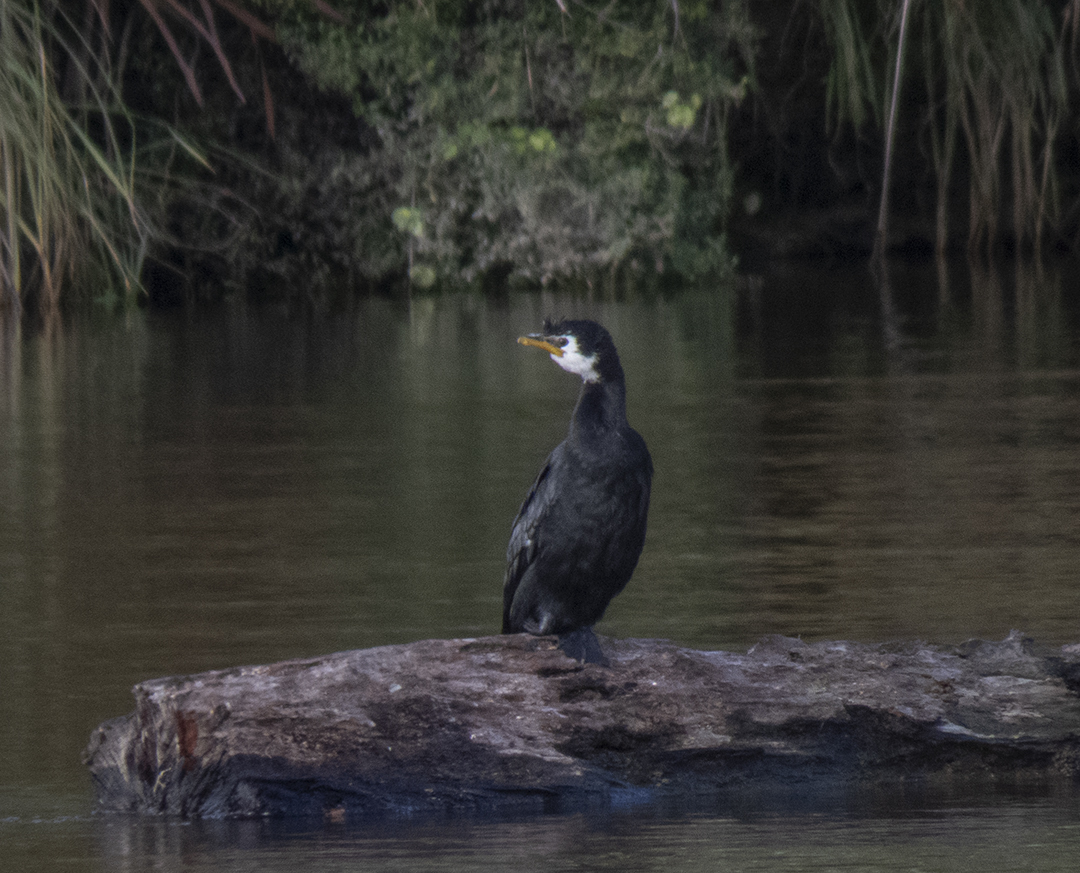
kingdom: Animalia
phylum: Chordata
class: Aves
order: Suliformes
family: Phalacrocoracidae
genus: Microcarbo
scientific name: Microcarbo melanoleucos
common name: Little pied cormorant
